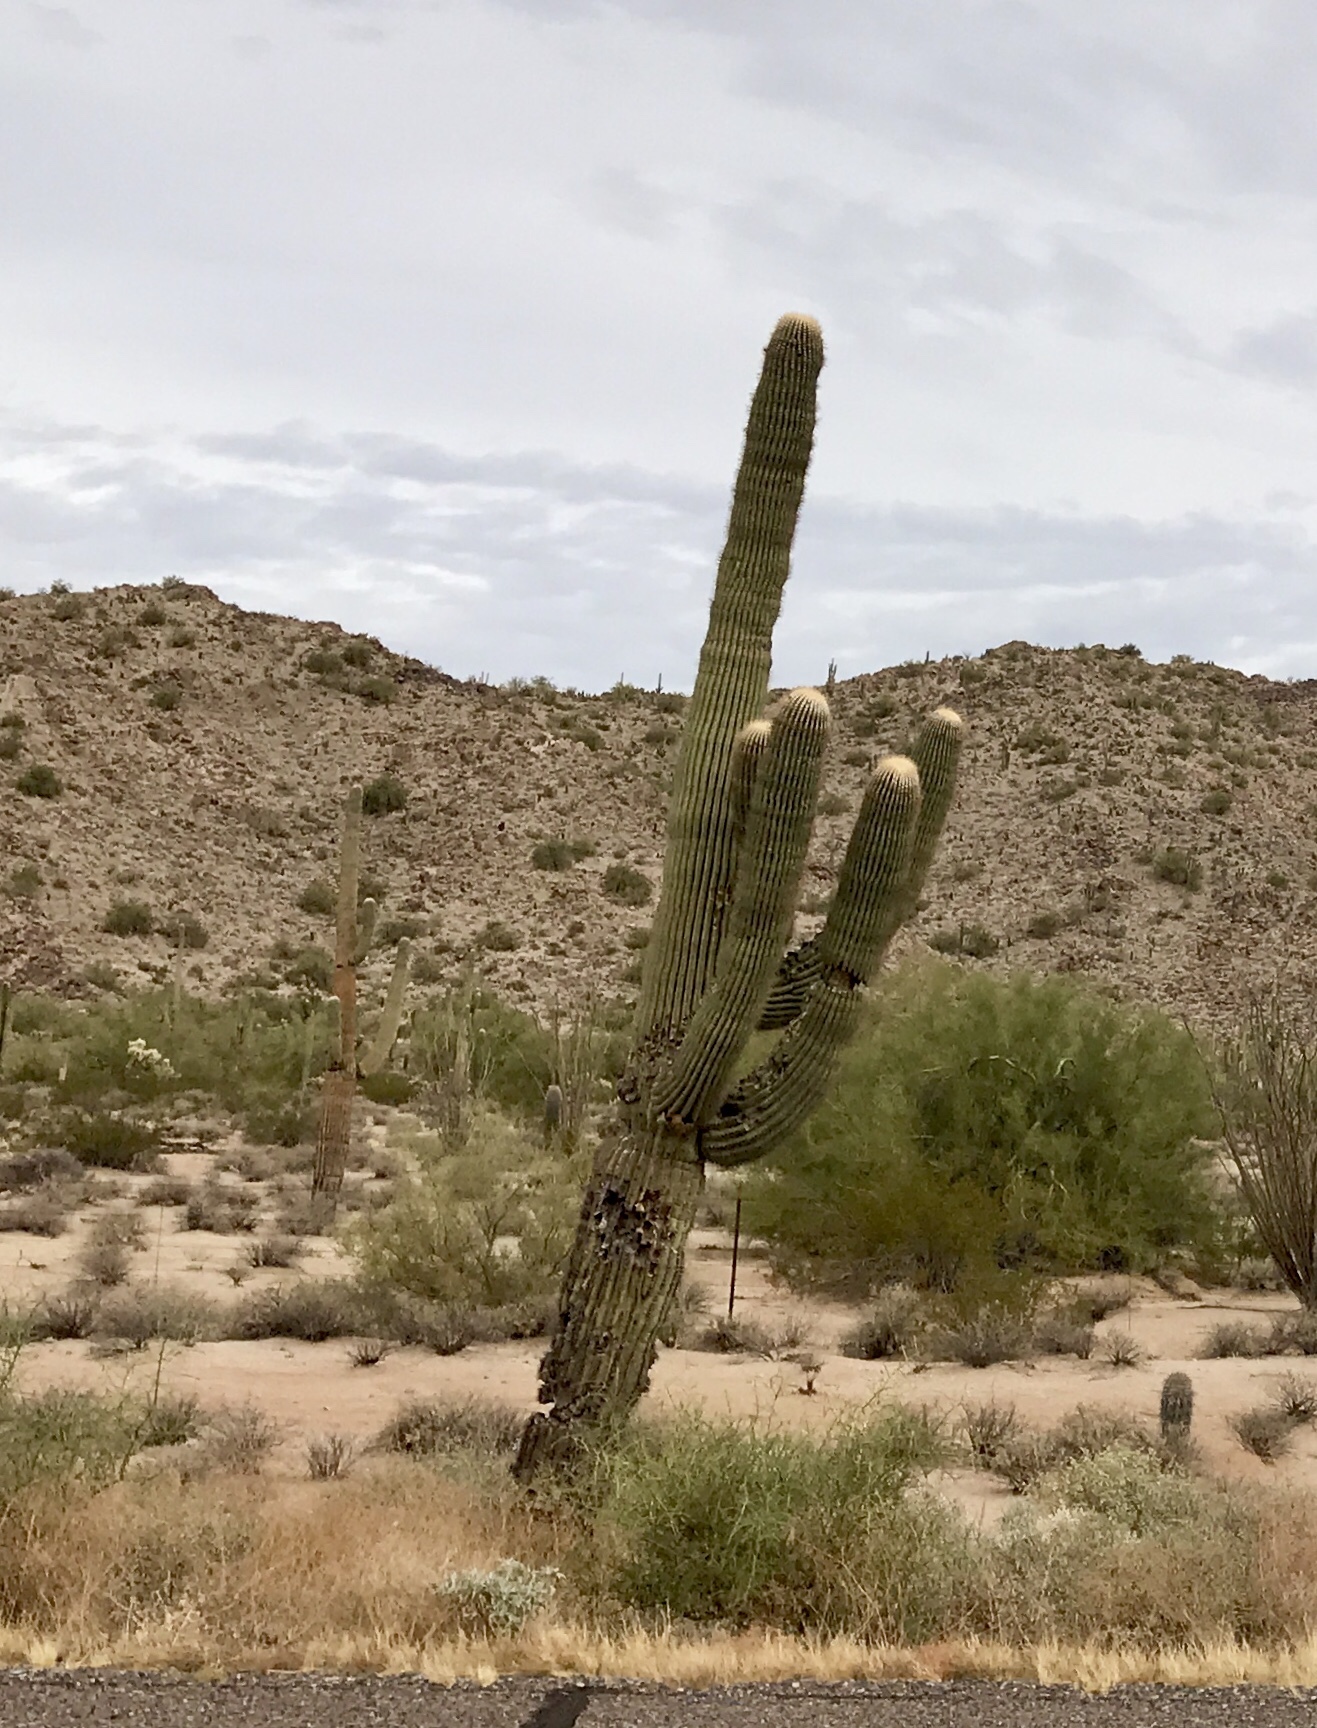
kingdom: Plantae
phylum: Tracheophyta
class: Magnoliopsida
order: Caryophyllales
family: Cactaceae
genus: Carnegiea
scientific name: Carnegiea gigantea
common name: Saguaro
